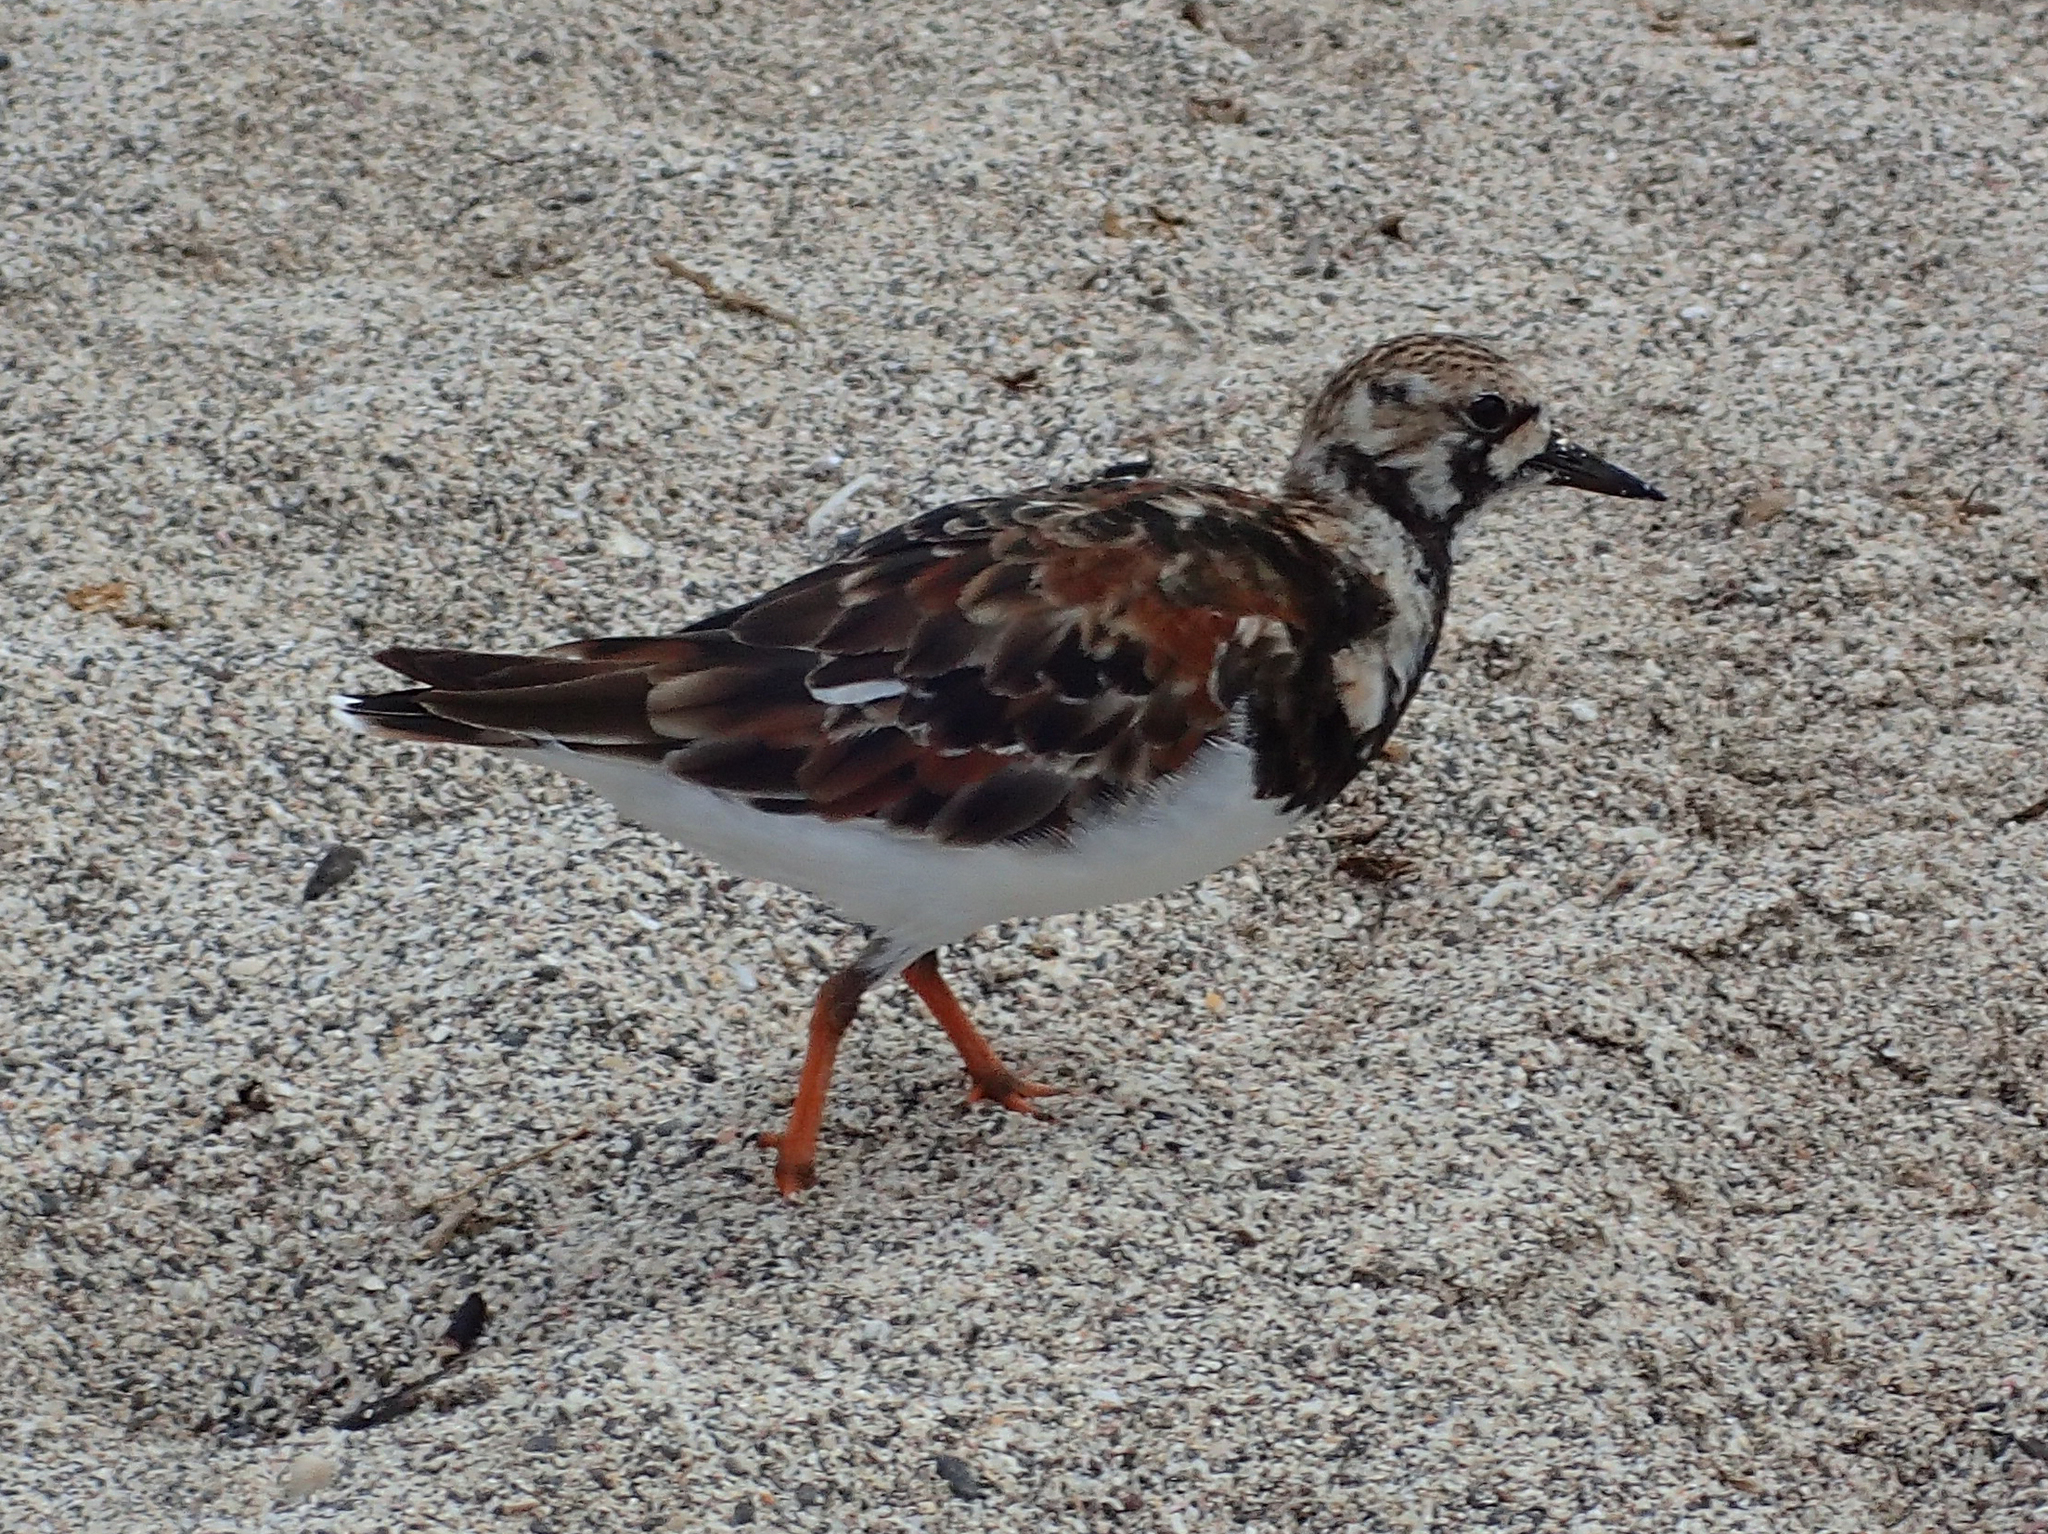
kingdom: Animalia
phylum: Chordata
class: Aves
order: Charadriiformes
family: Scolopacidae
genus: Arenaria
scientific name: Arenaria interpres
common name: Ruddy turnstone
